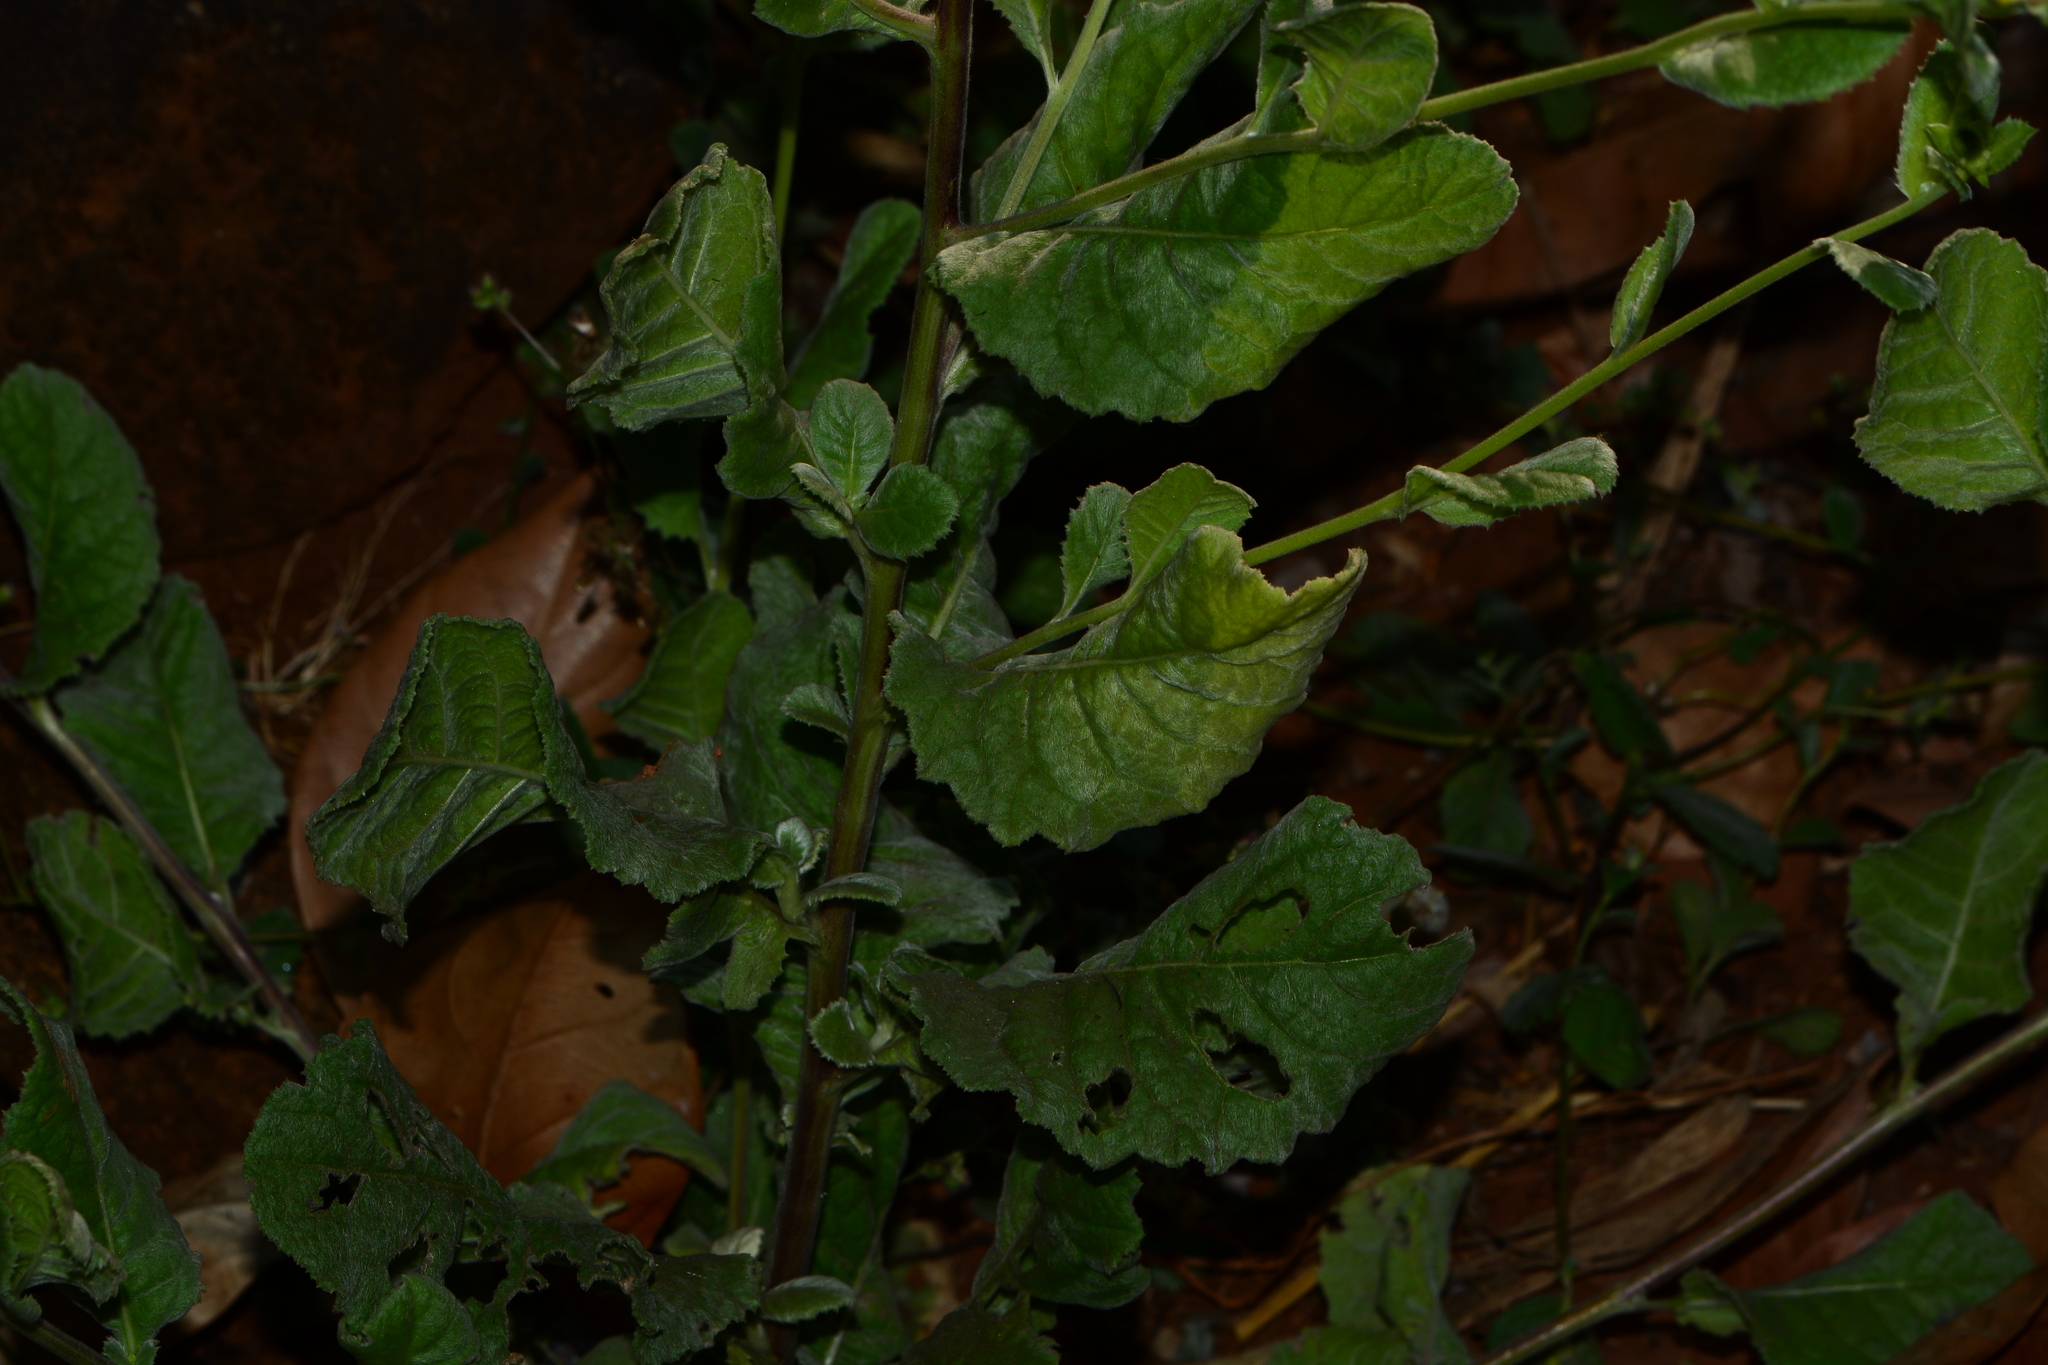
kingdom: Plantae
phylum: Tracheophyta
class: Magnoliopsida
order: Asterales
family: Asteraceae
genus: Blumea
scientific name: Blumea eriantha
